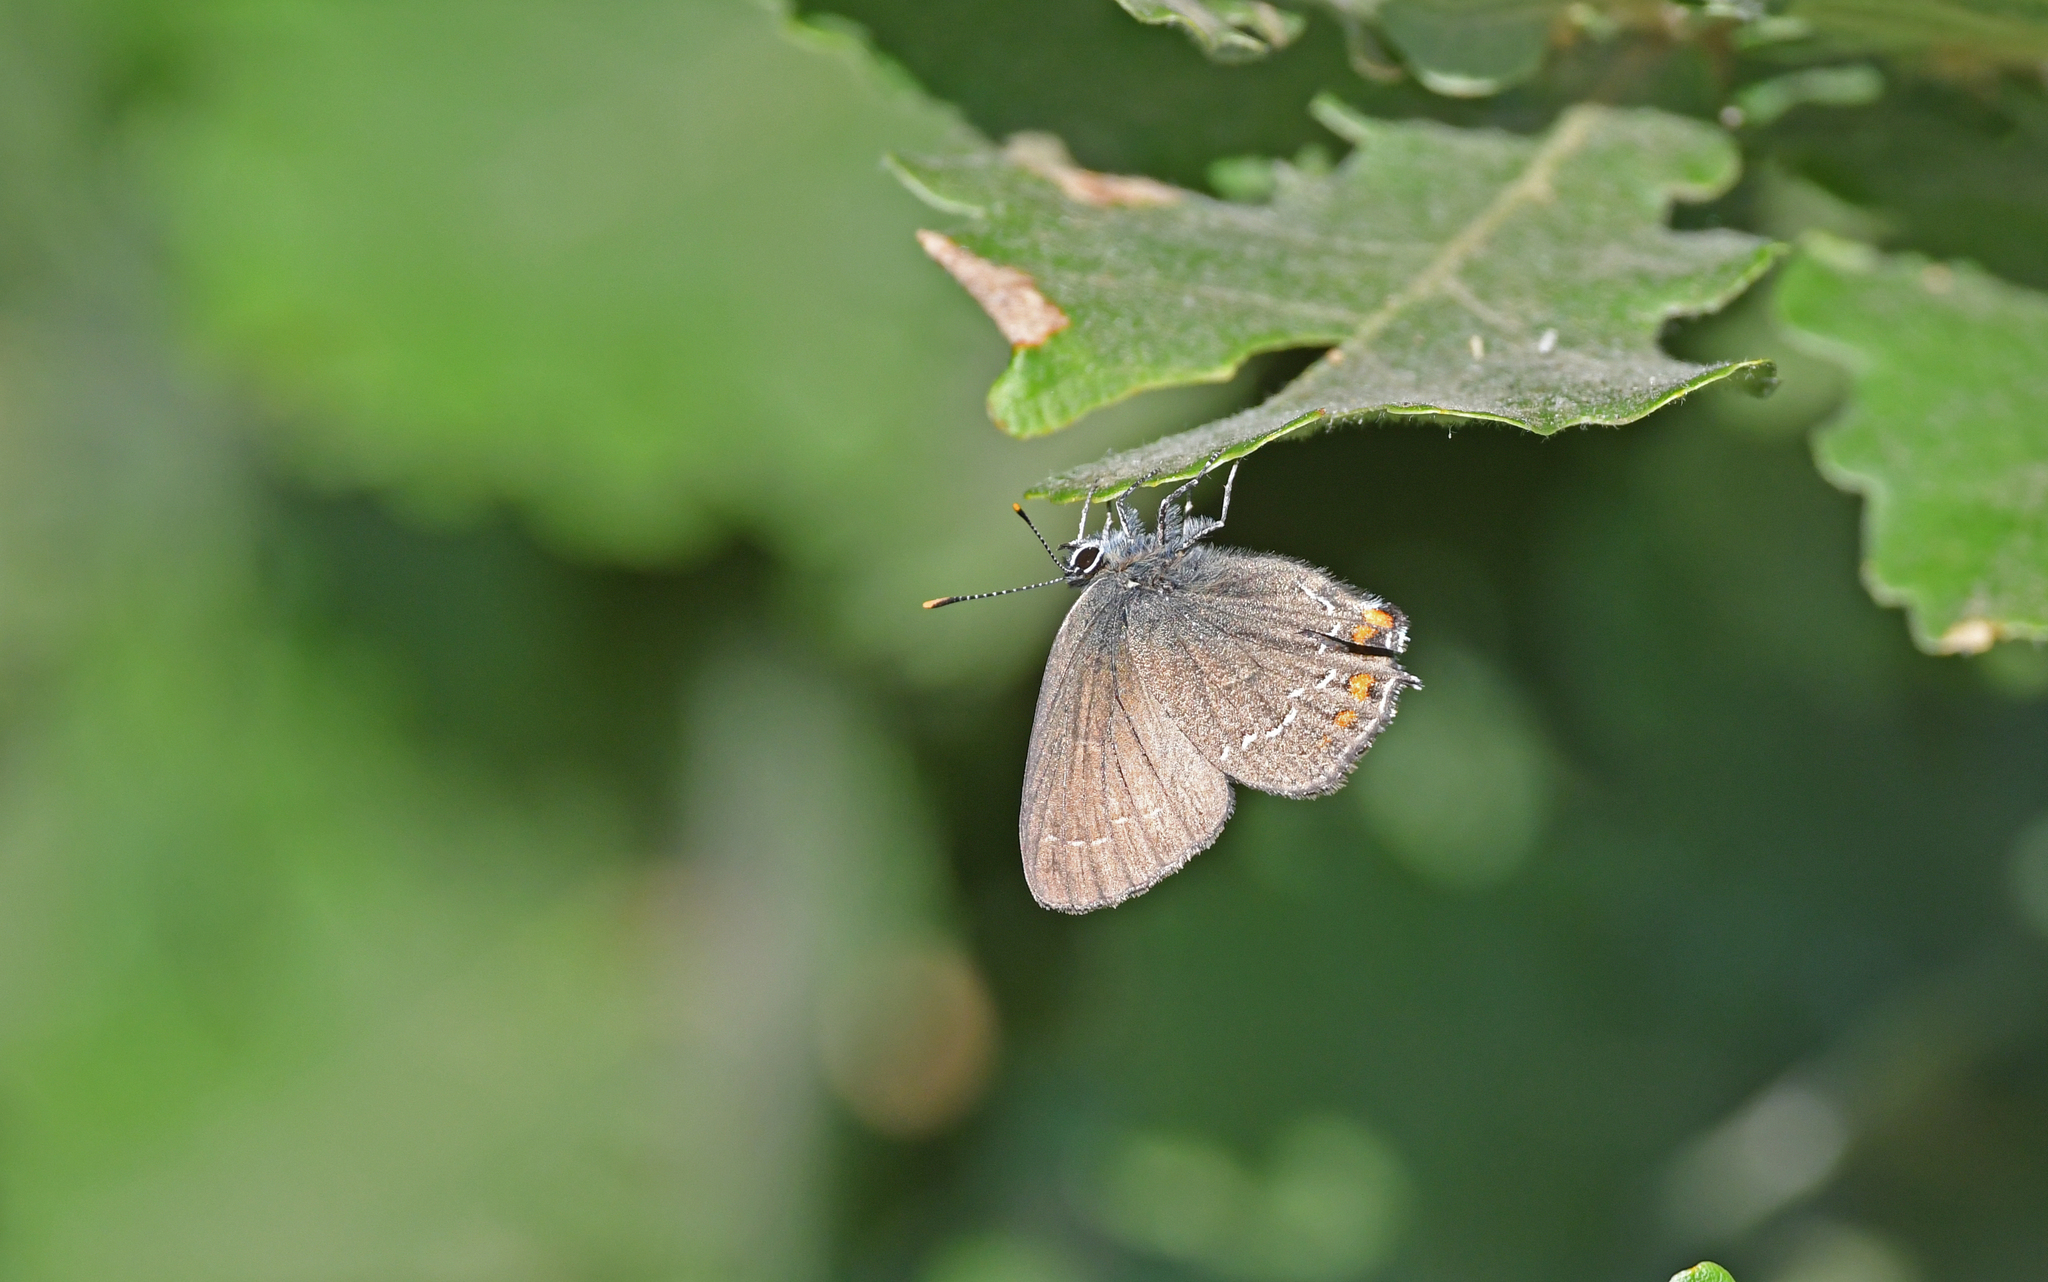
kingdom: Animalia
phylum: Arthropoda
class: Insecta
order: Lepidoptera
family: Lycaenidae
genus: Nordmannia
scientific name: Nordmannia ilicis
